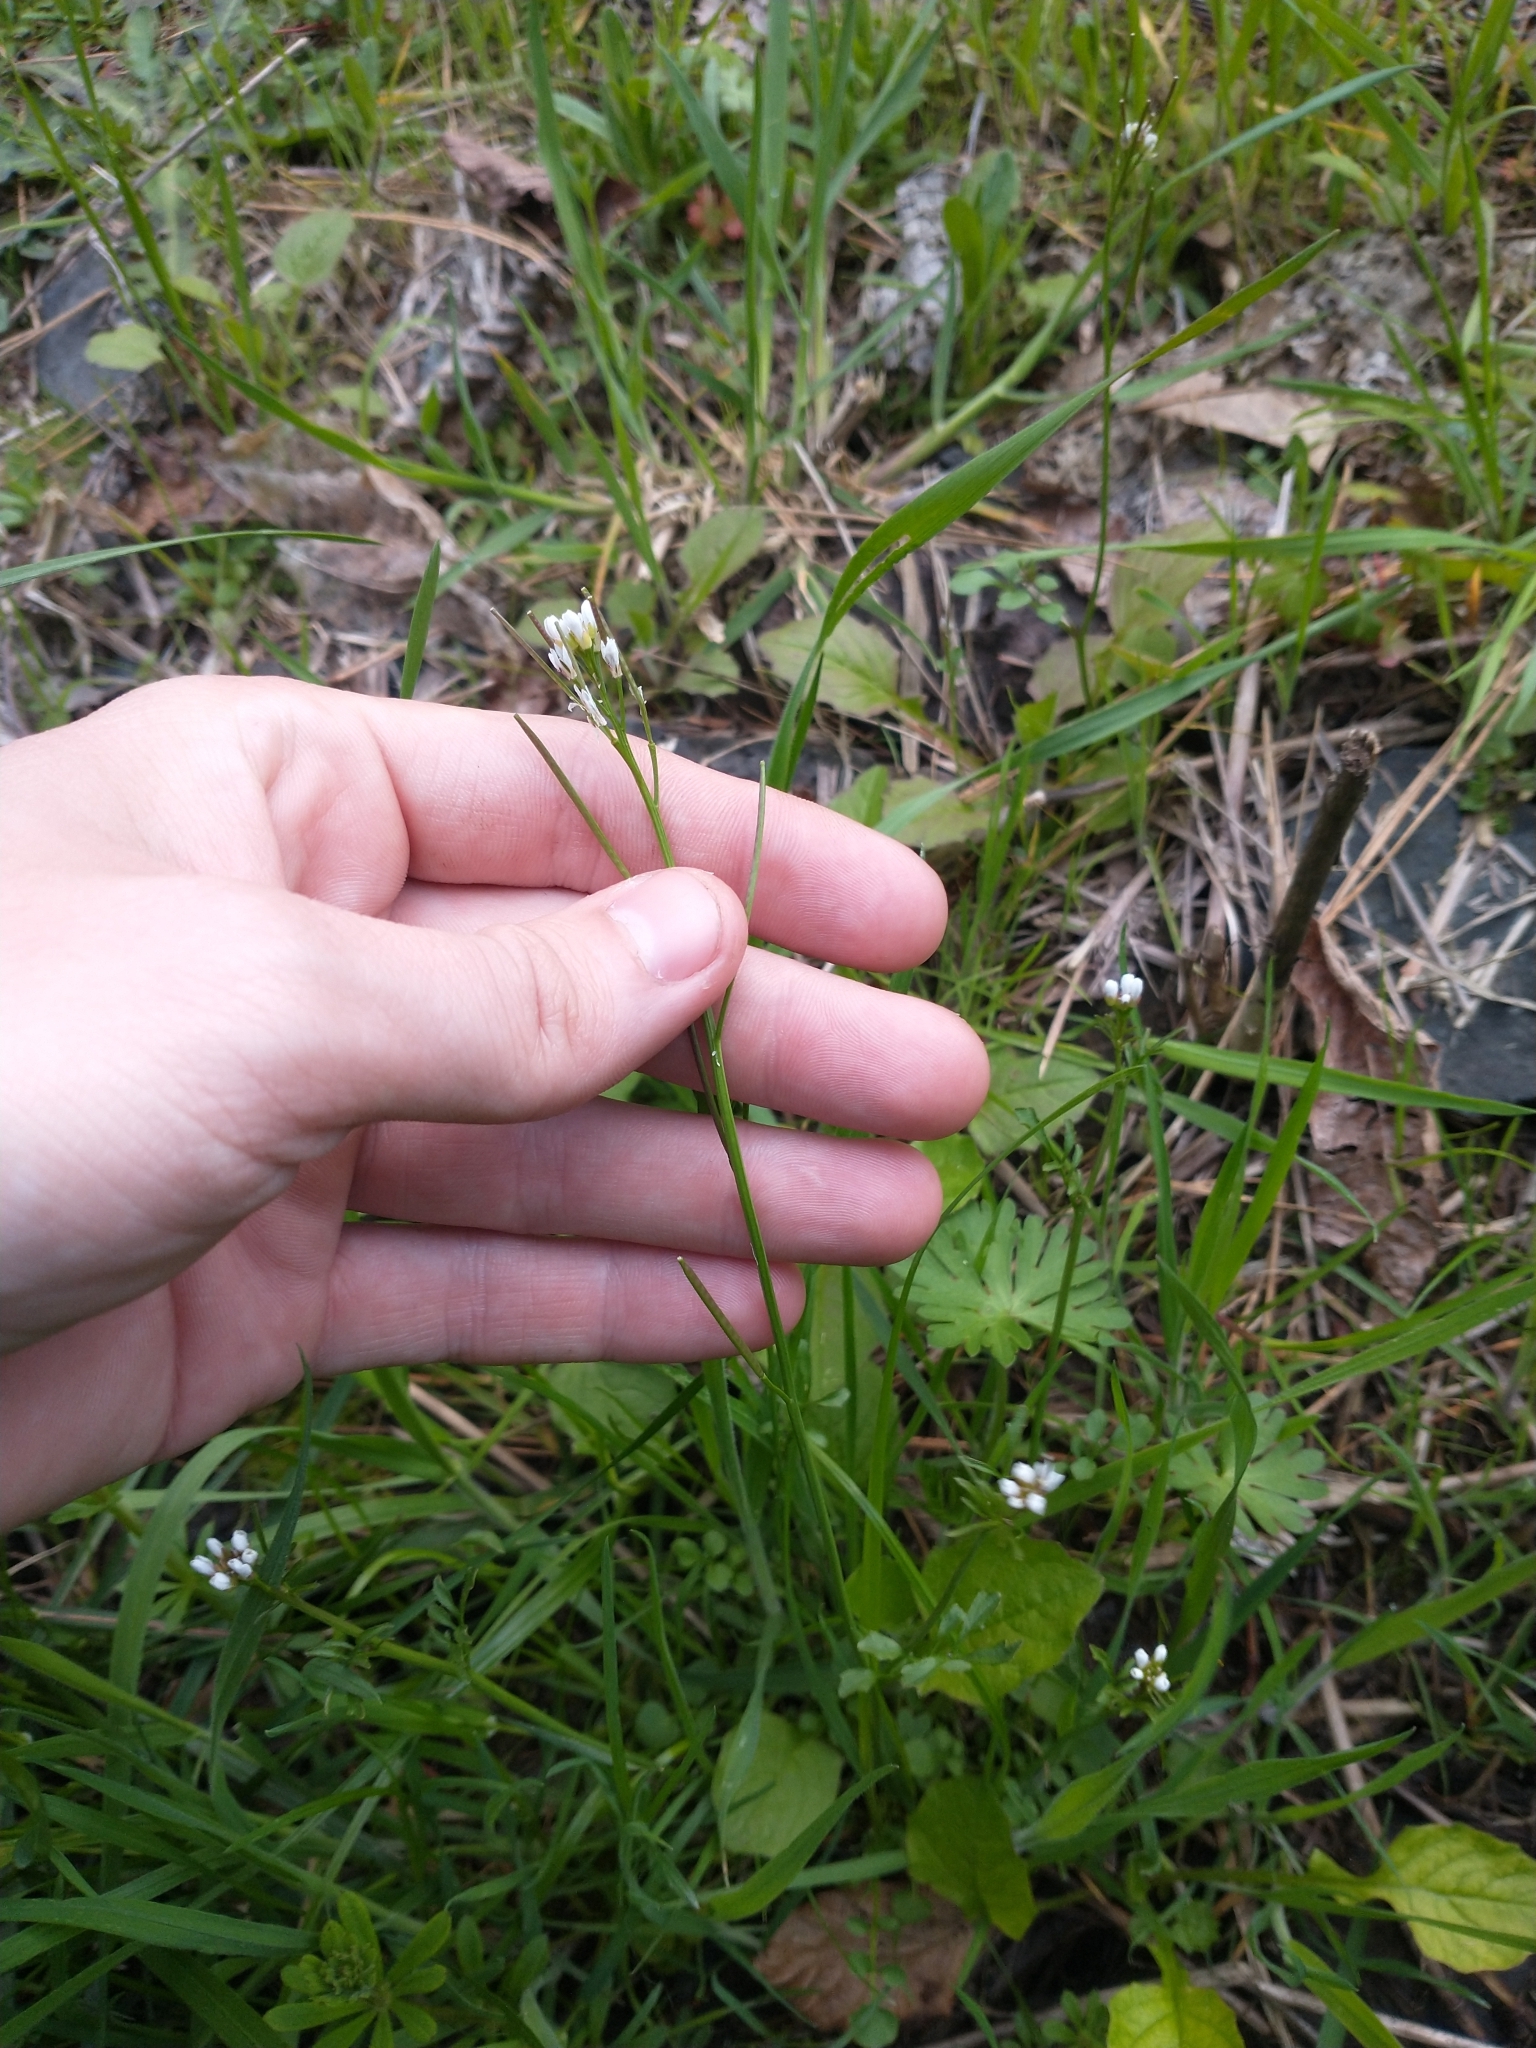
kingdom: Plantae
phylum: Tracheophyta
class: Magnoliopsida
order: Brassicales
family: Brassicaceae
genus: Cardamine
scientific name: Cardamine hirsuta
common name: Hairy bittercress
